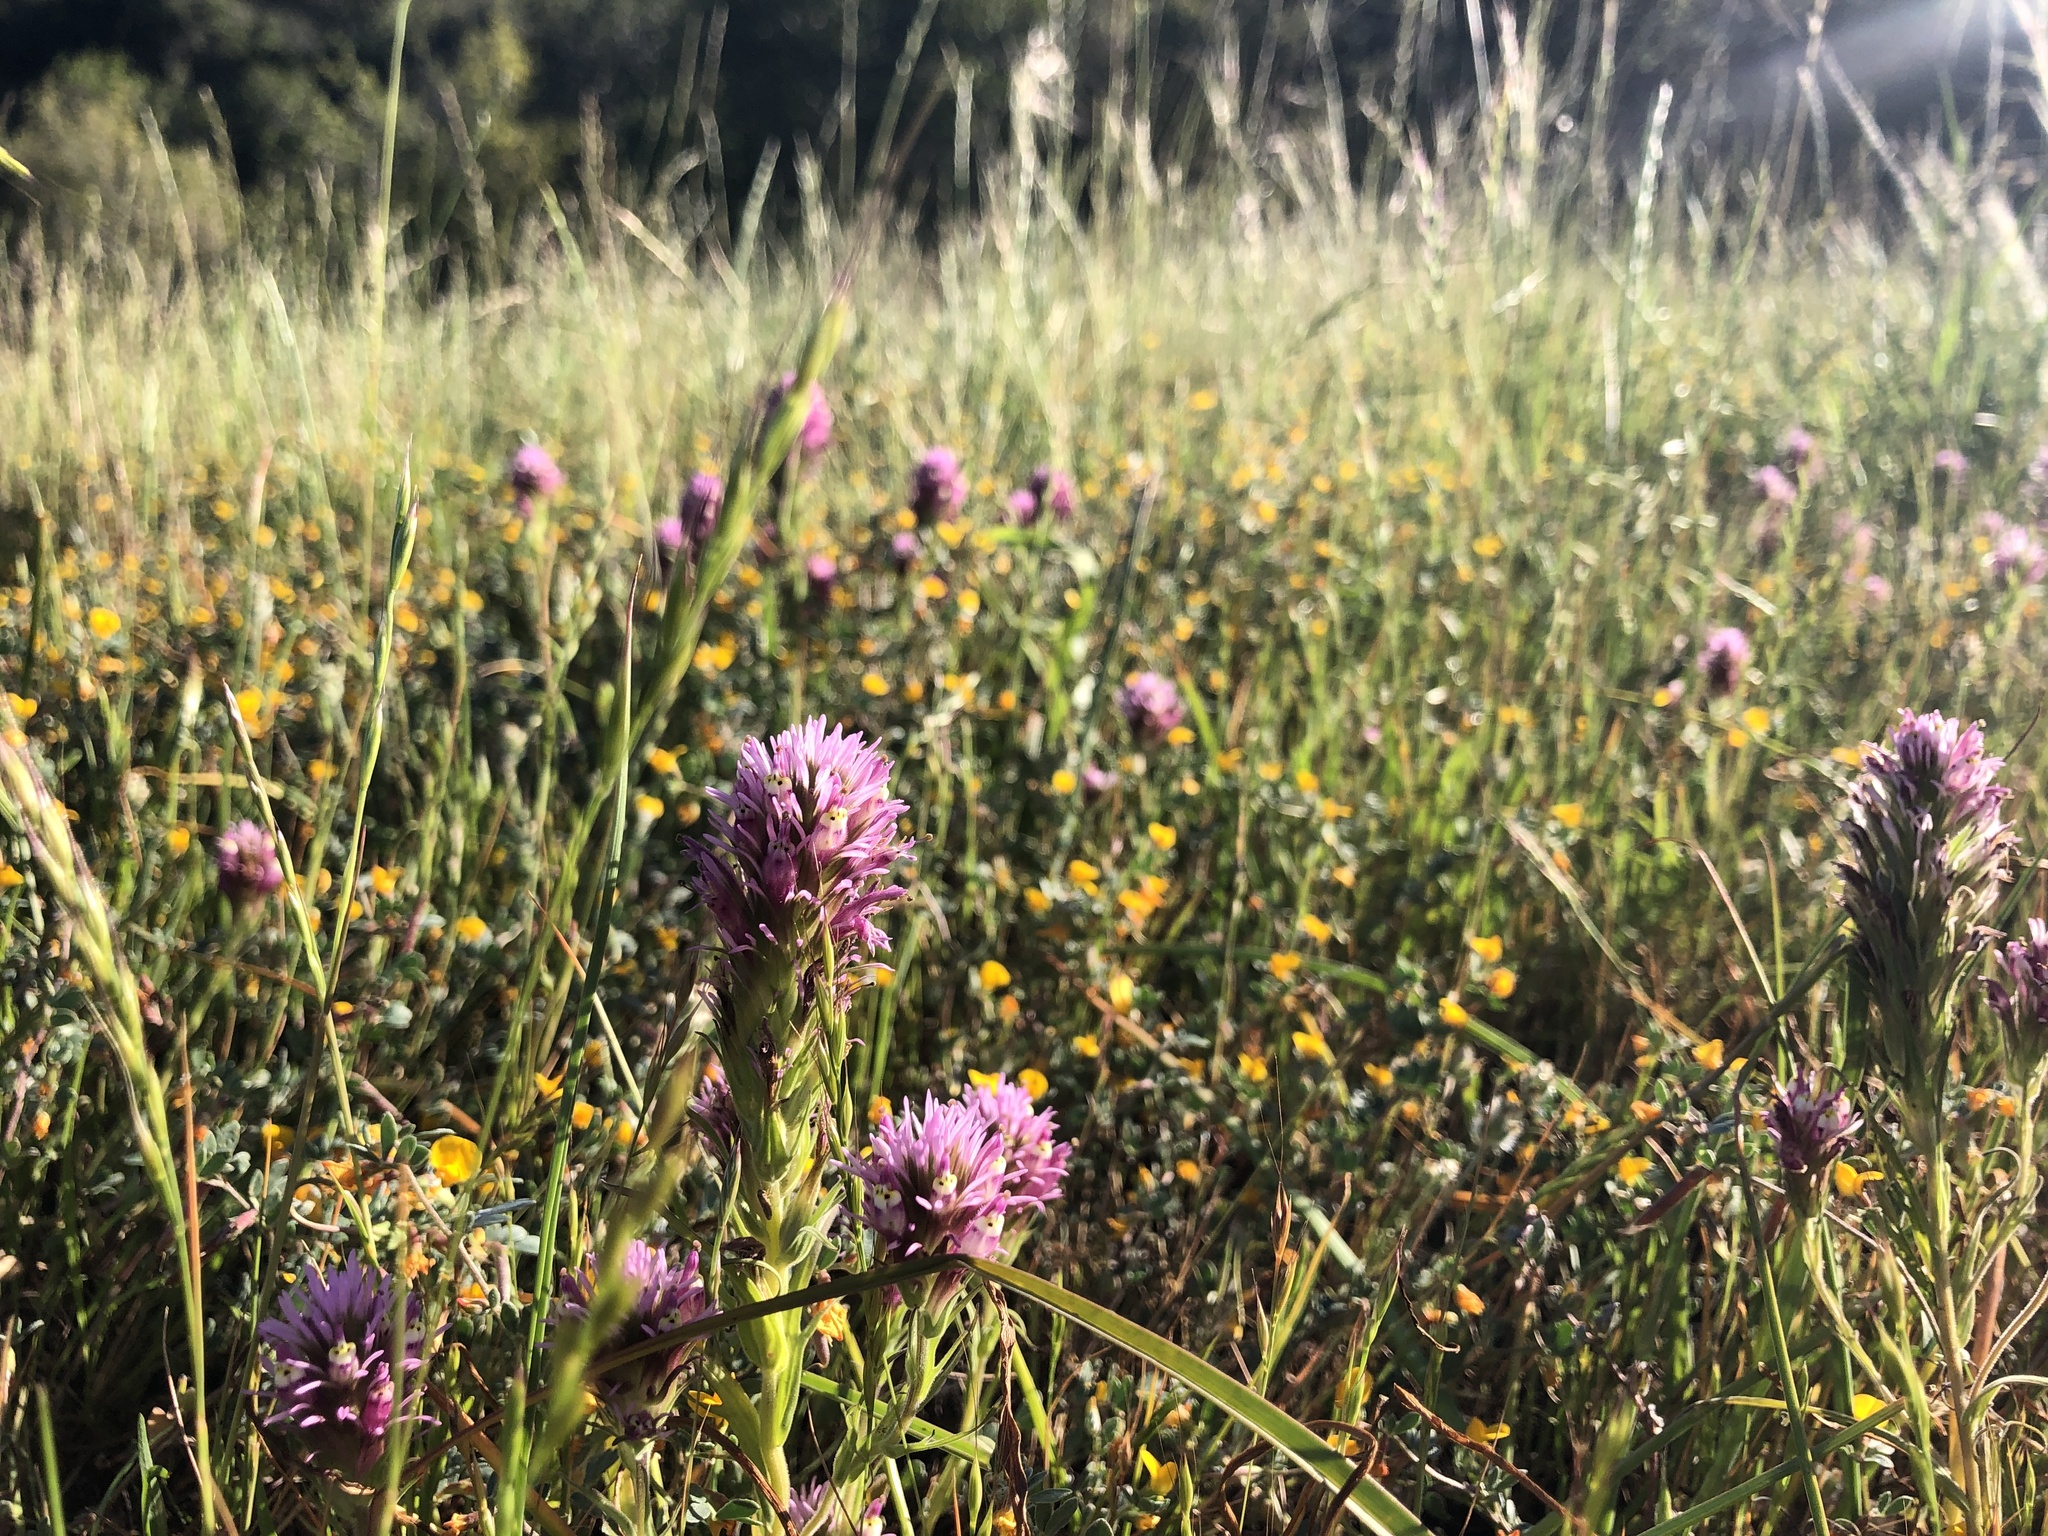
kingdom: Plantae
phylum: Tracheophyta
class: Magnoliopsida
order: Lamiales
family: Orobanchaceae
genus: Castilleja
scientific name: Castilleja densiflora
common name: Dense-flower indian paintbrush
